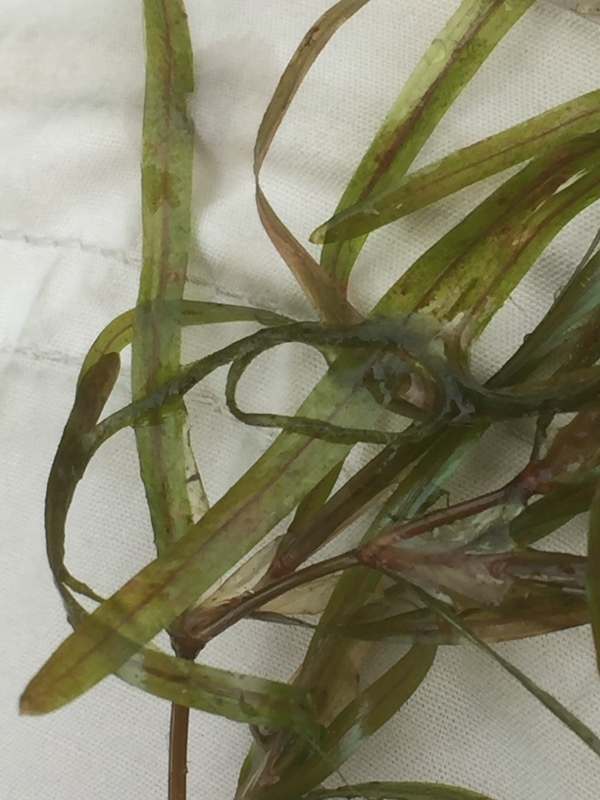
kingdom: Plantae
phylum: Tracheophyta
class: Liliopsida
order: Alismatales
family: Potamogetonaceae
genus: Potamogeton
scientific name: Potamogeton obtusifolius
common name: Blunt-leaved pondweed
